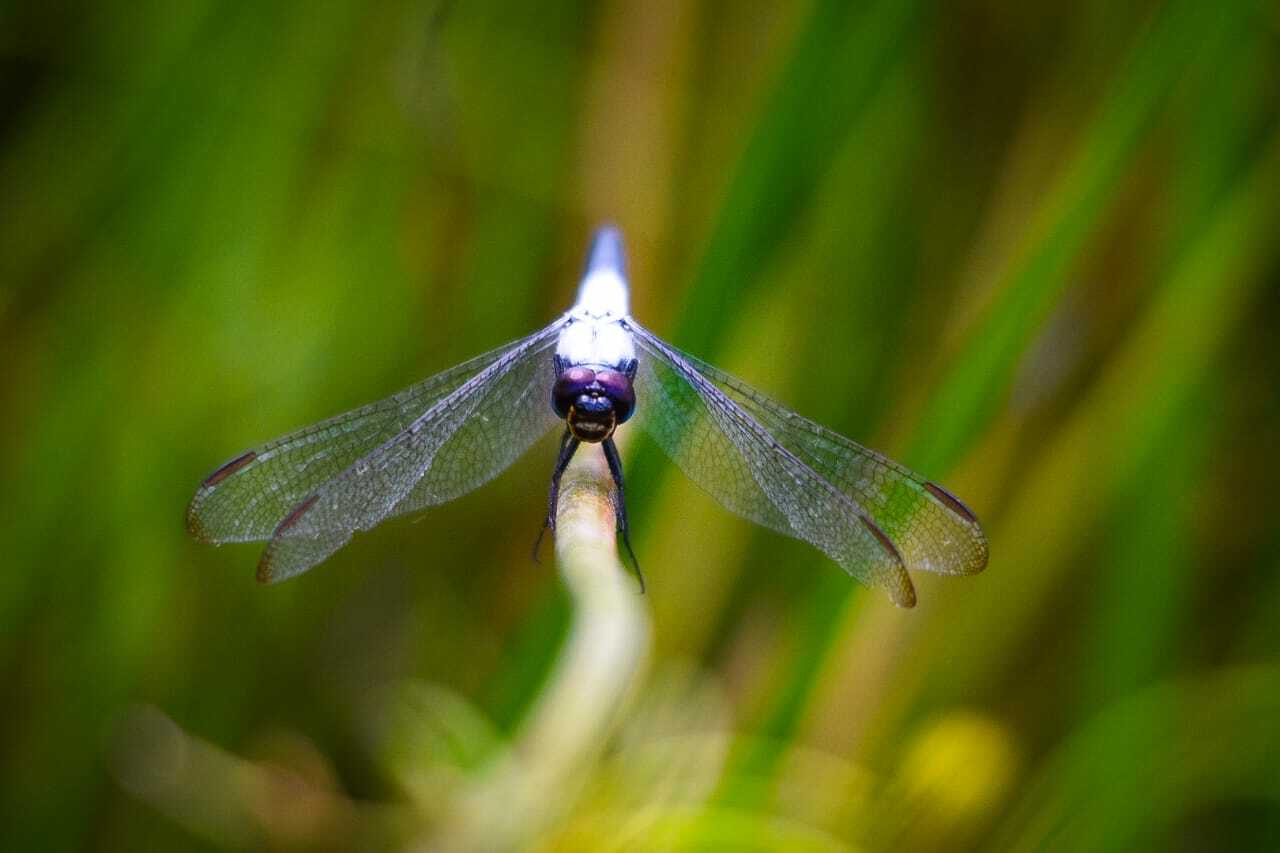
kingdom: Animalia
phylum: Arthropoda
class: Insecta
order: Odonata
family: Libellulidae
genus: Nesciothemis
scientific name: Nesciothemis farinosa
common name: Eastern blacktail
